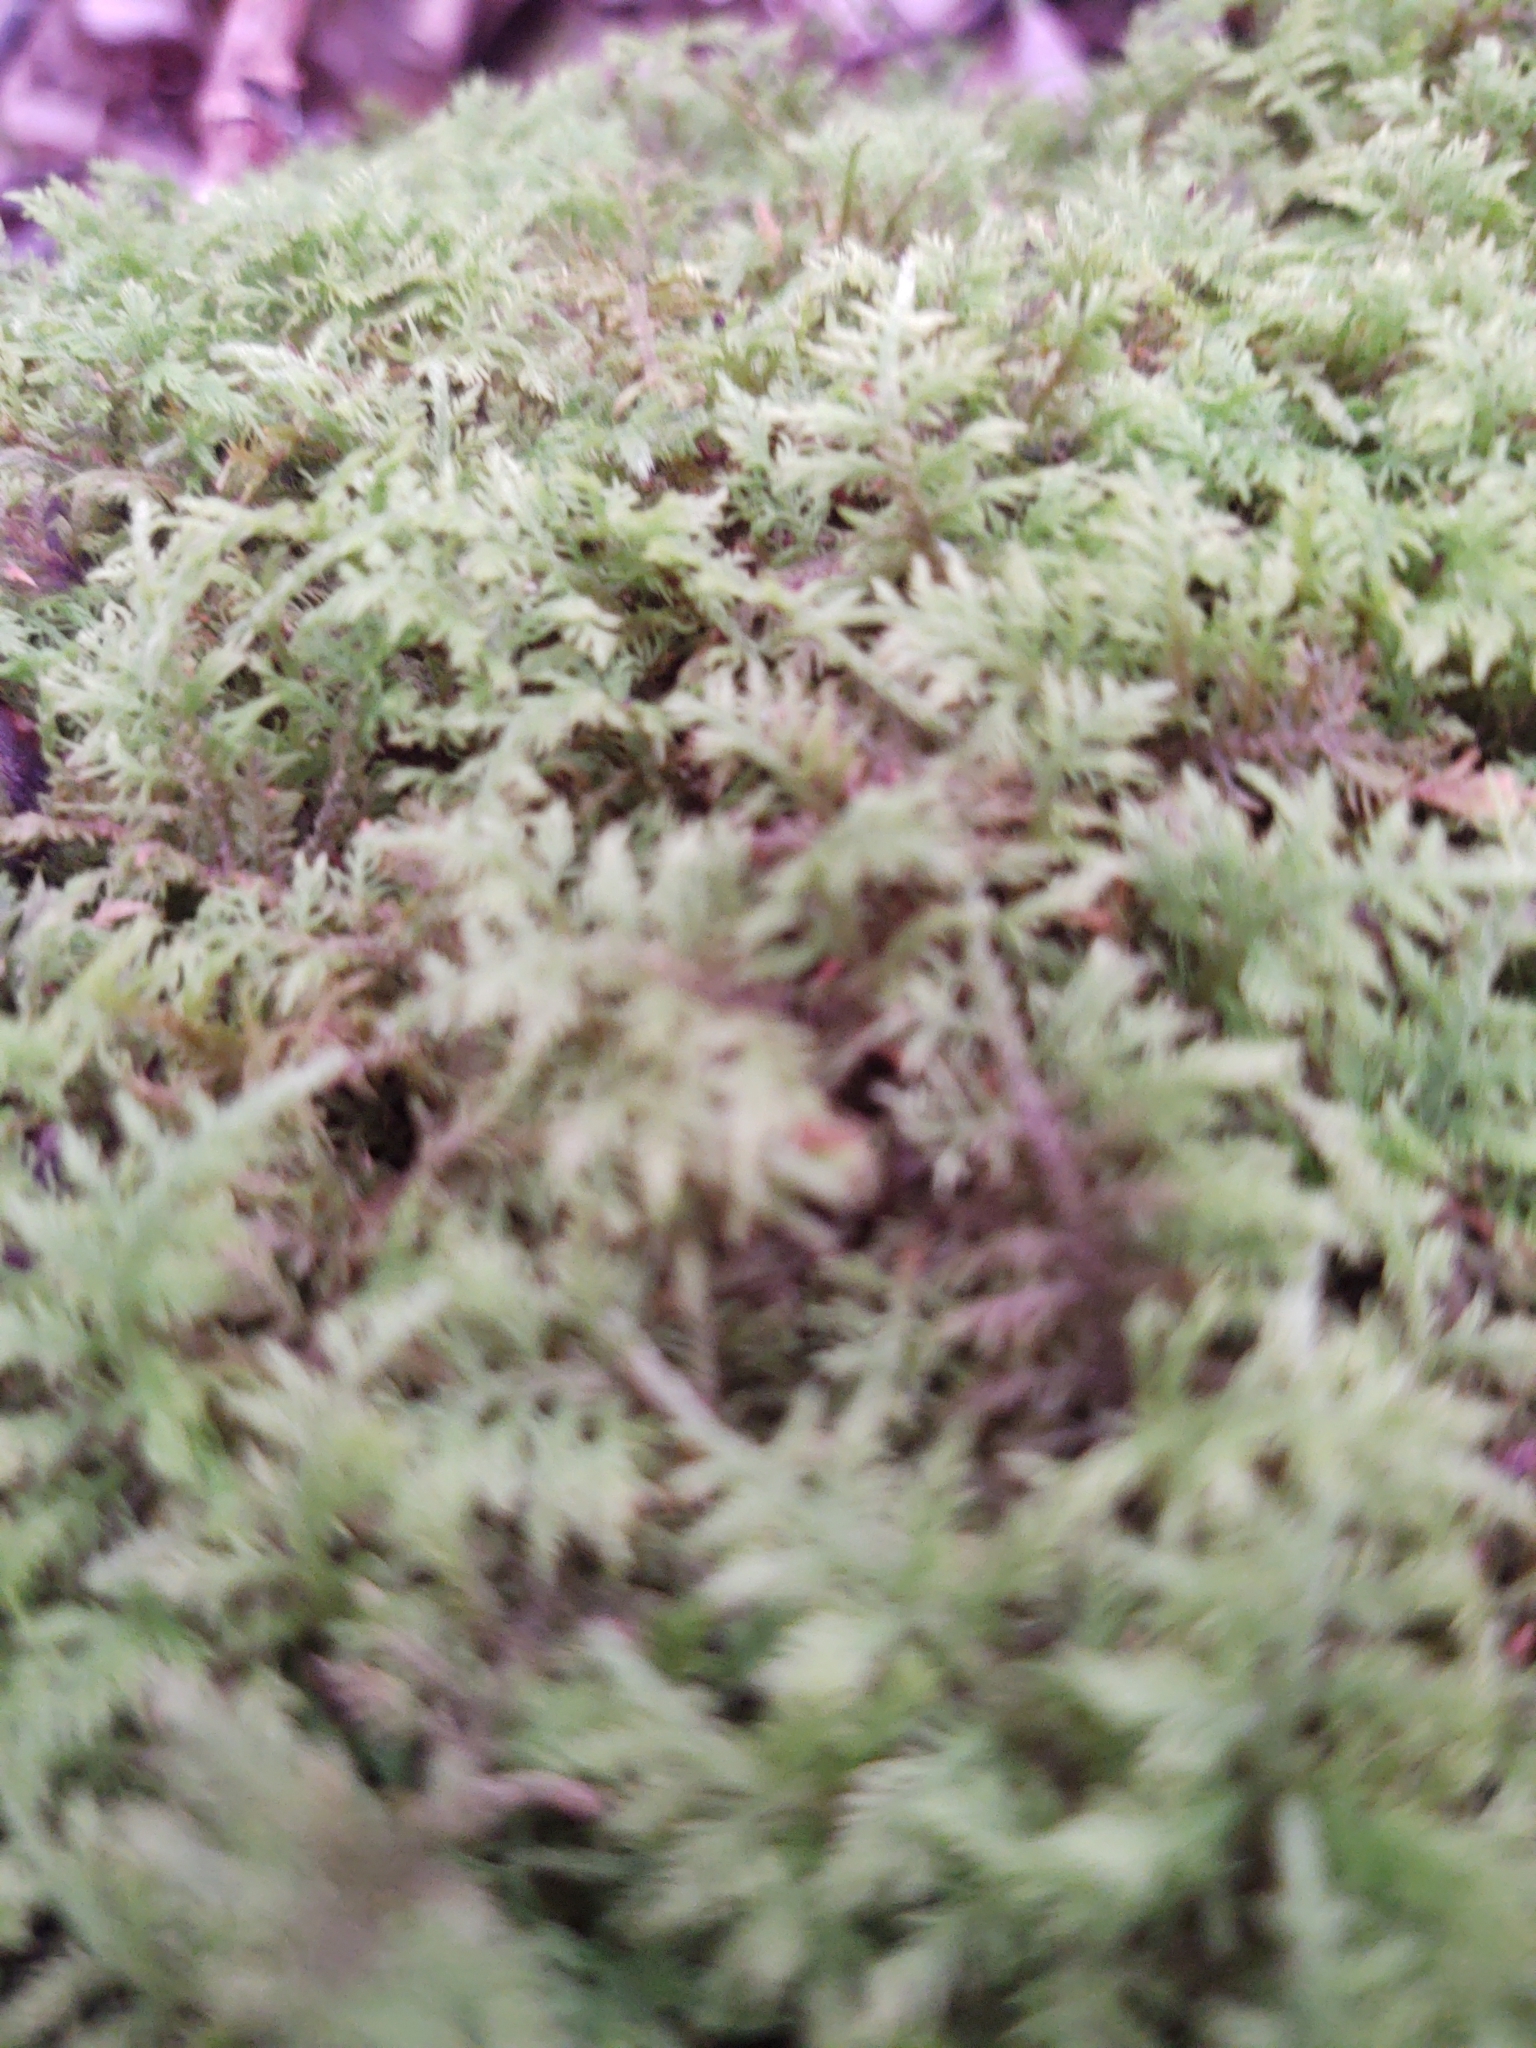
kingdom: Plantae
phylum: Bryophyta
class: Bryopsida
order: Hypnales
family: Thuidiaceae
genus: Thuidium
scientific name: Thuidium delicatulum
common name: Delicate fern moss
